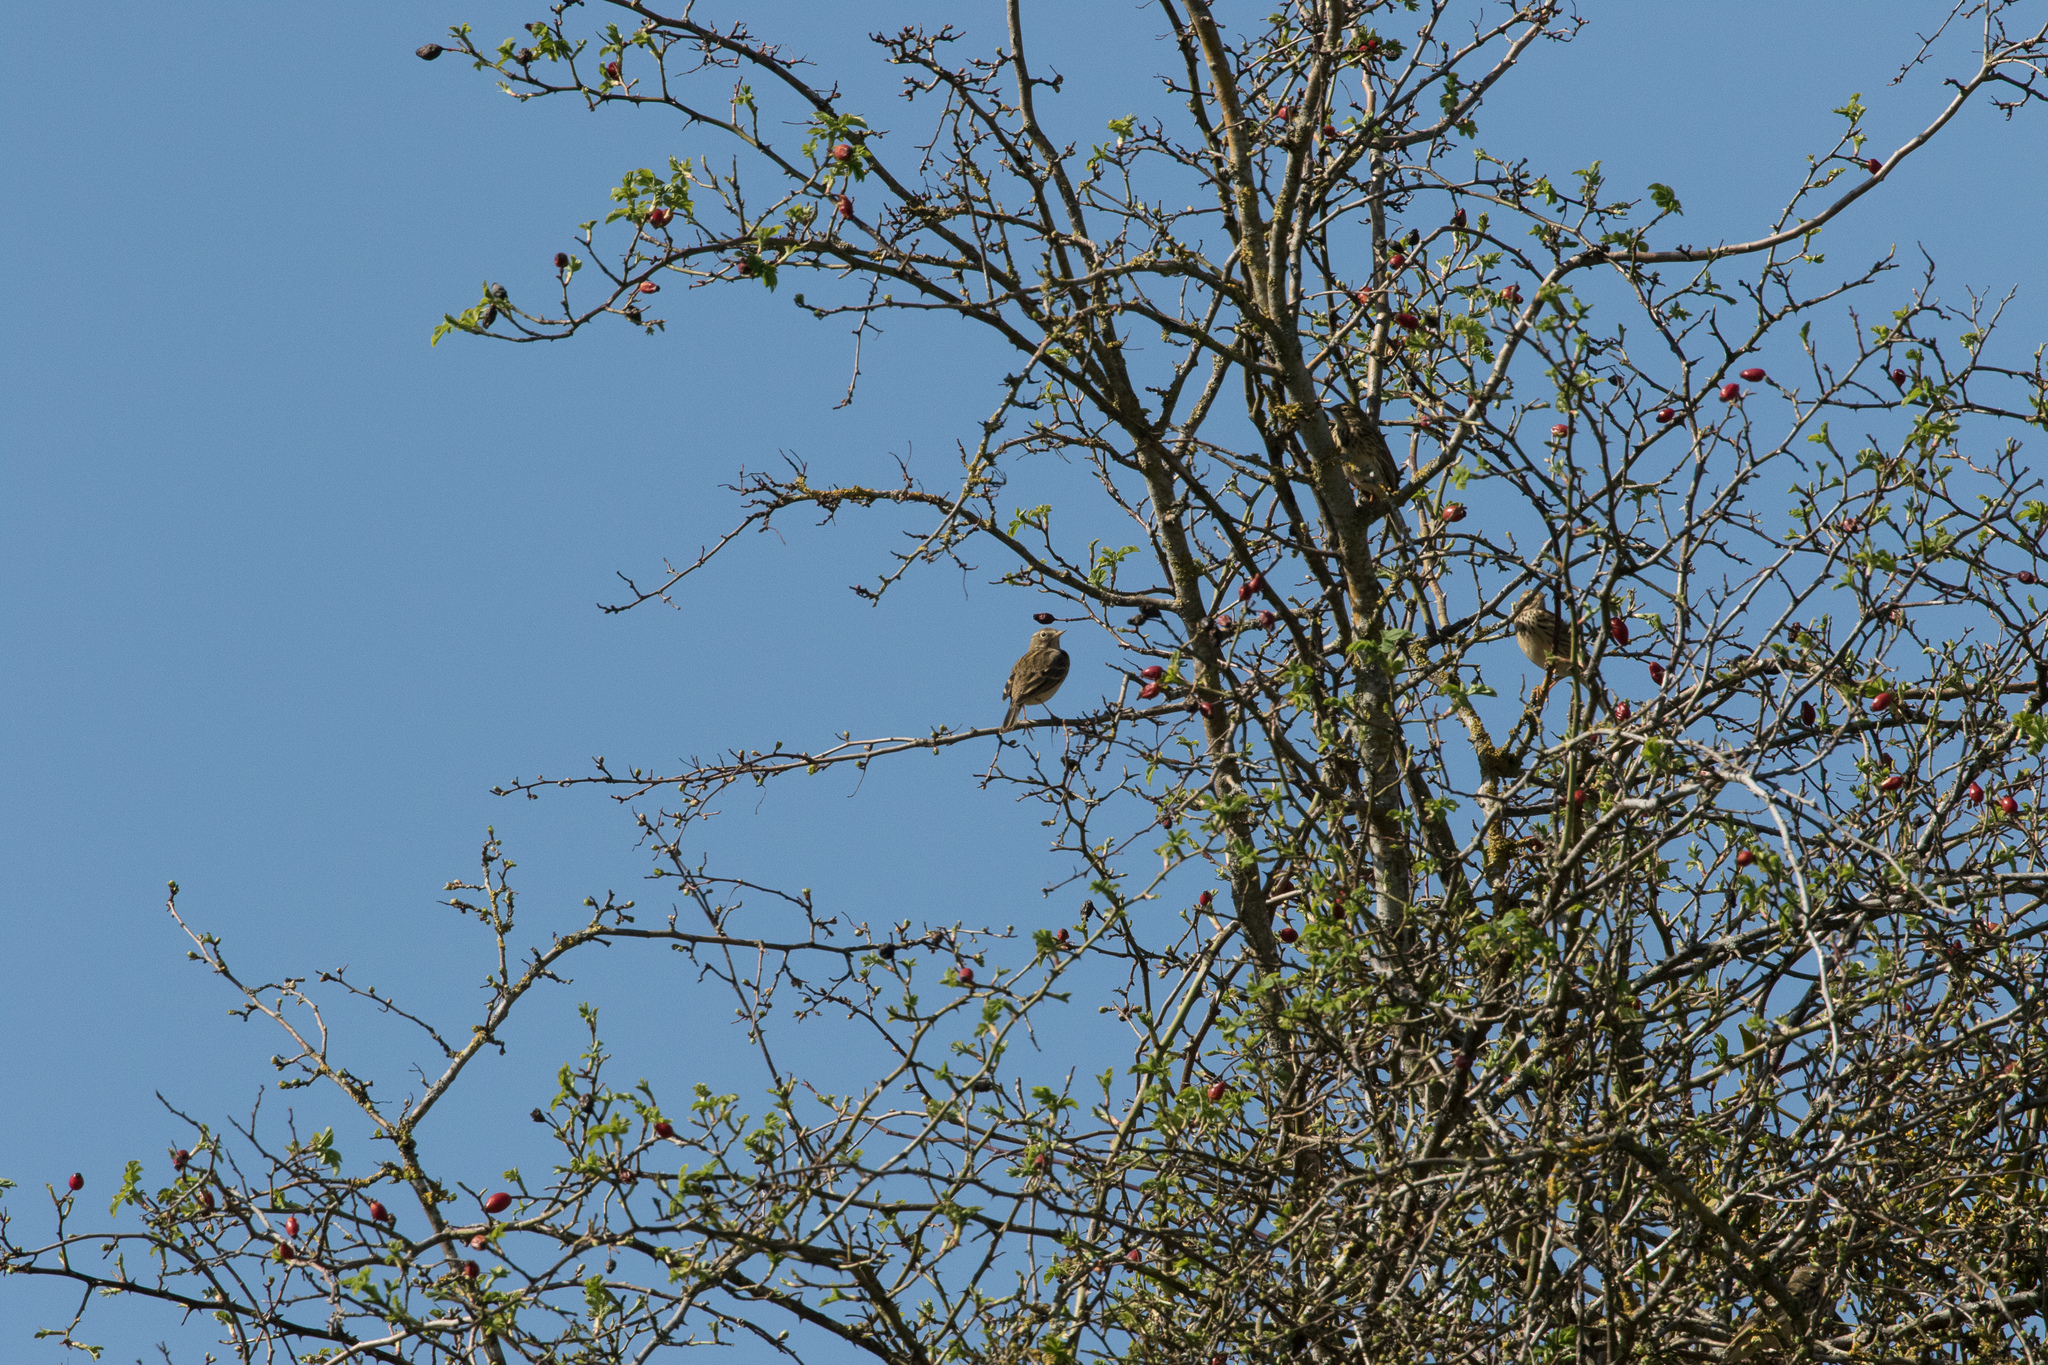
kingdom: Animalia
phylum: Chordata
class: Aves
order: Passeriformes
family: Motacillidae
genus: Anthus
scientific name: Anthus pratensis
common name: Meadow pipit
